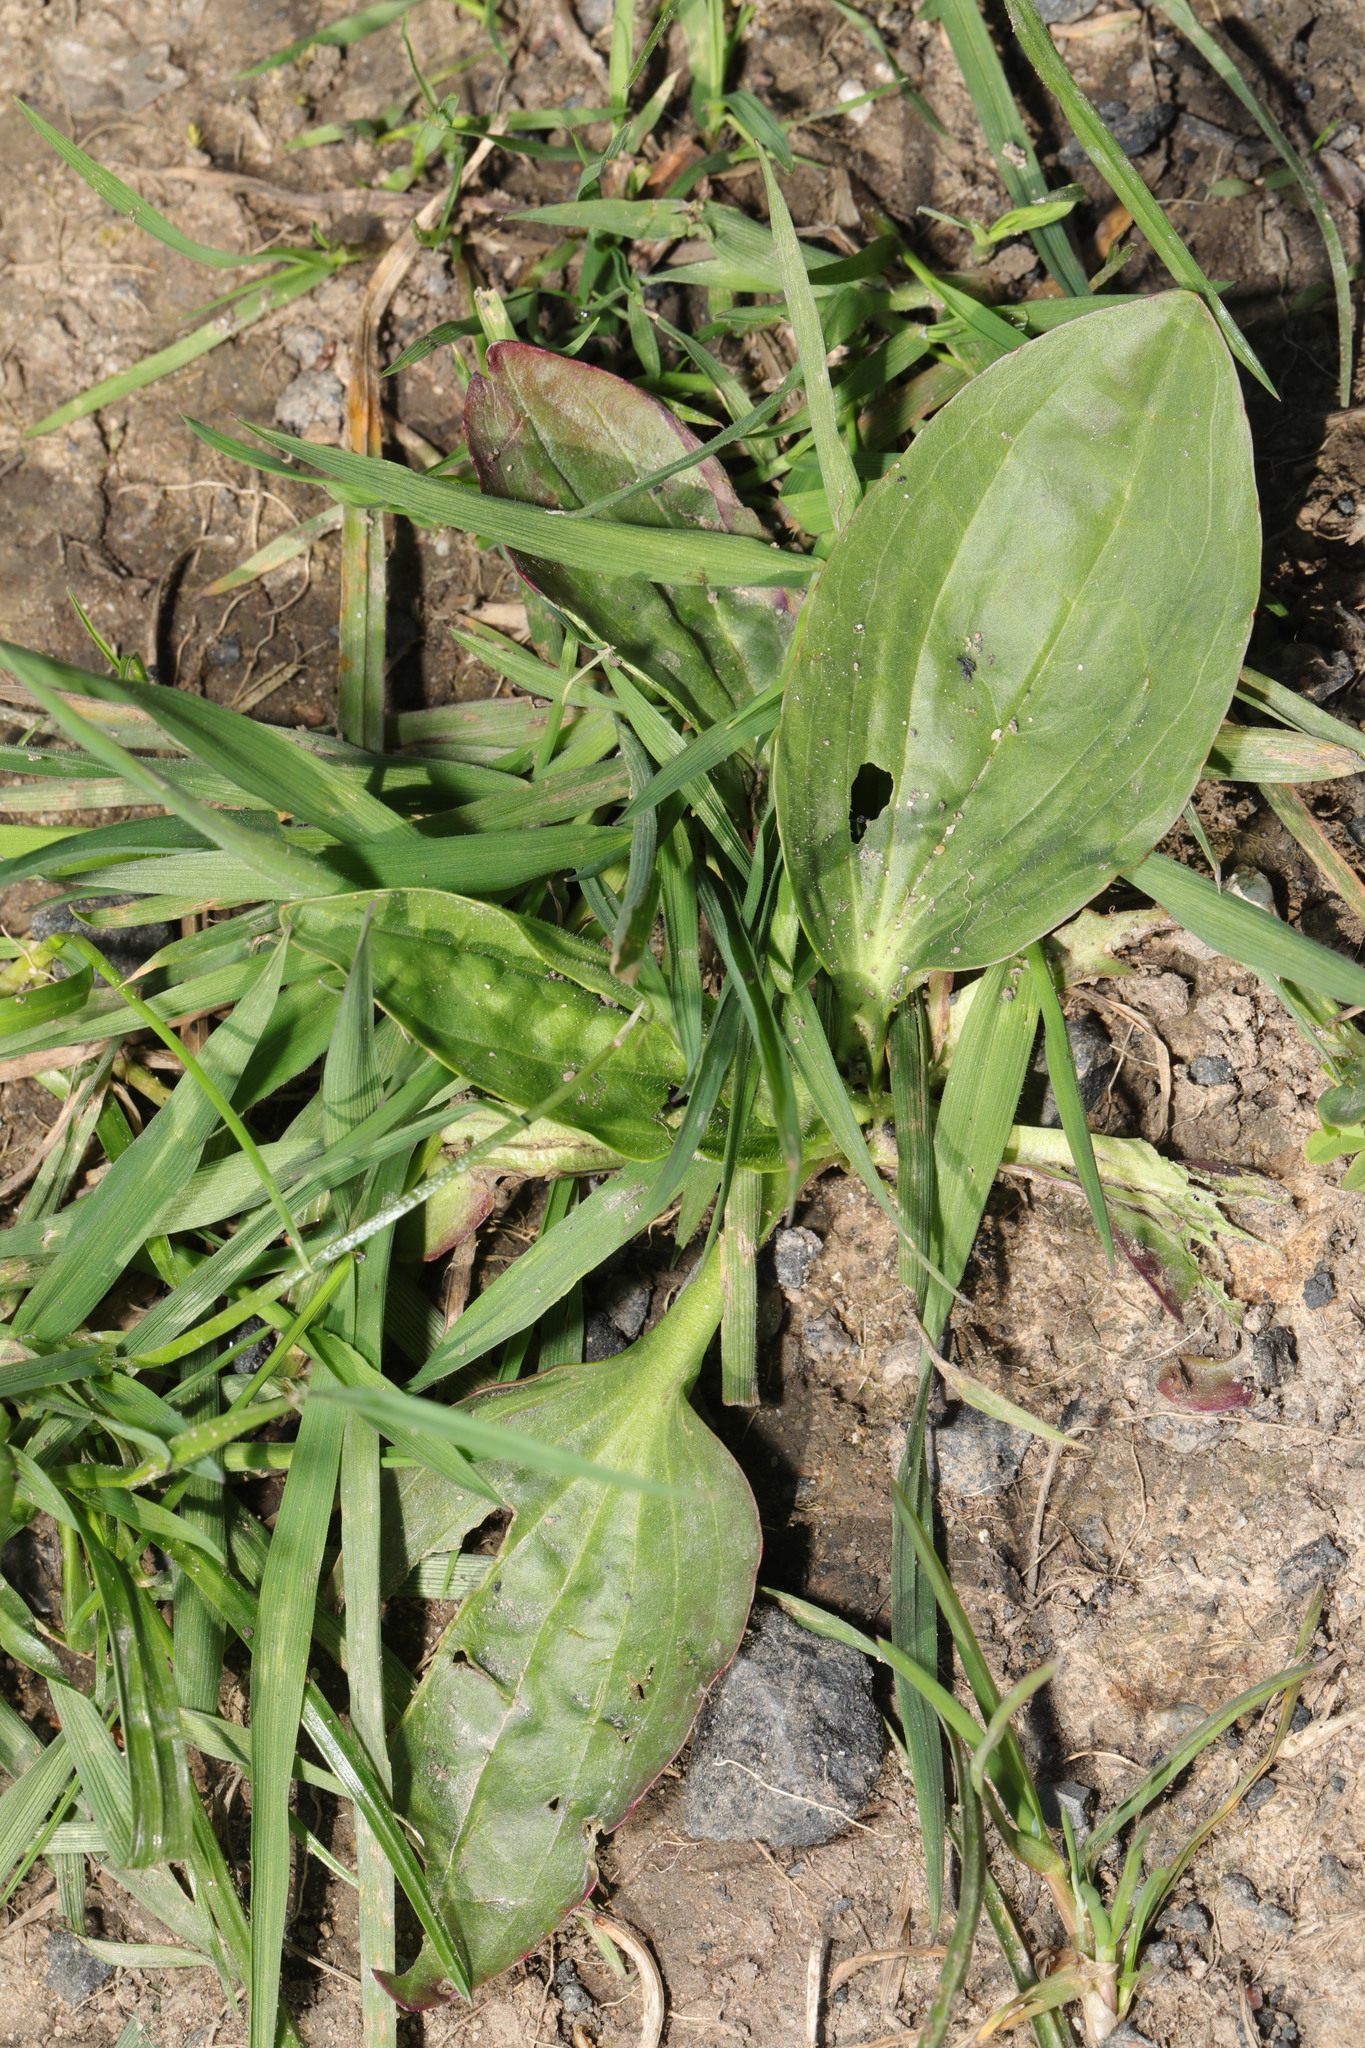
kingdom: Plantae
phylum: Tracheophyta
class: Magnoliopsida
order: Lamiales
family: Plantaginaceae
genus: Plantago
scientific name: Plantago major
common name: Common plantain
